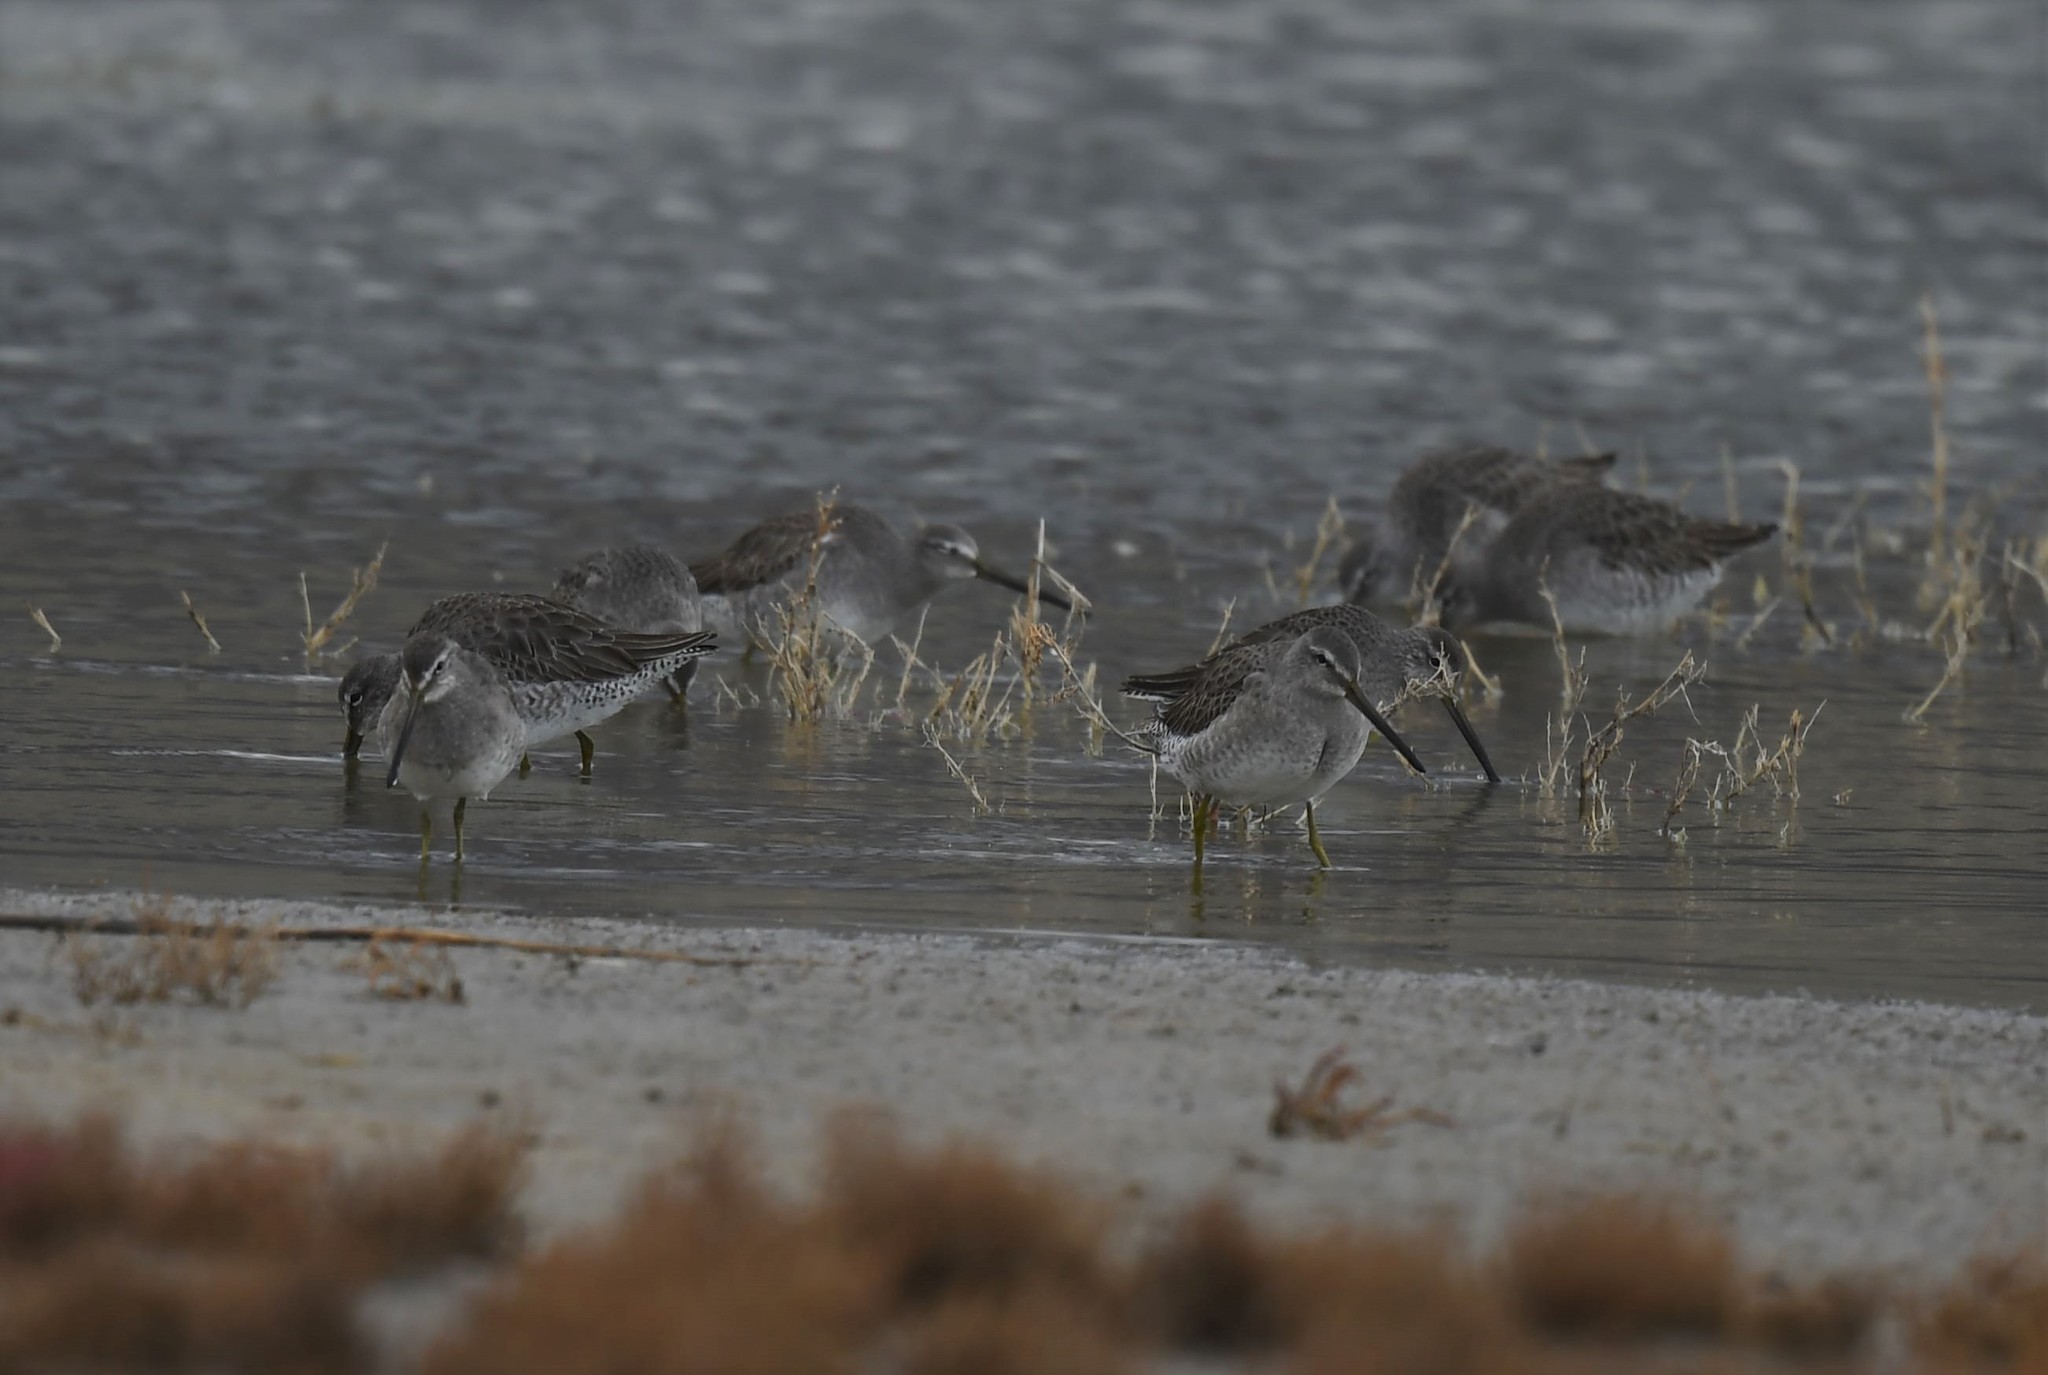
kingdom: Animalia
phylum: Chordata
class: Aves
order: Charadriiformes
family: Scolopacidae
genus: Limnodromus
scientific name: Limnodromus scolopaceus
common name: Long-billed dowitcher
